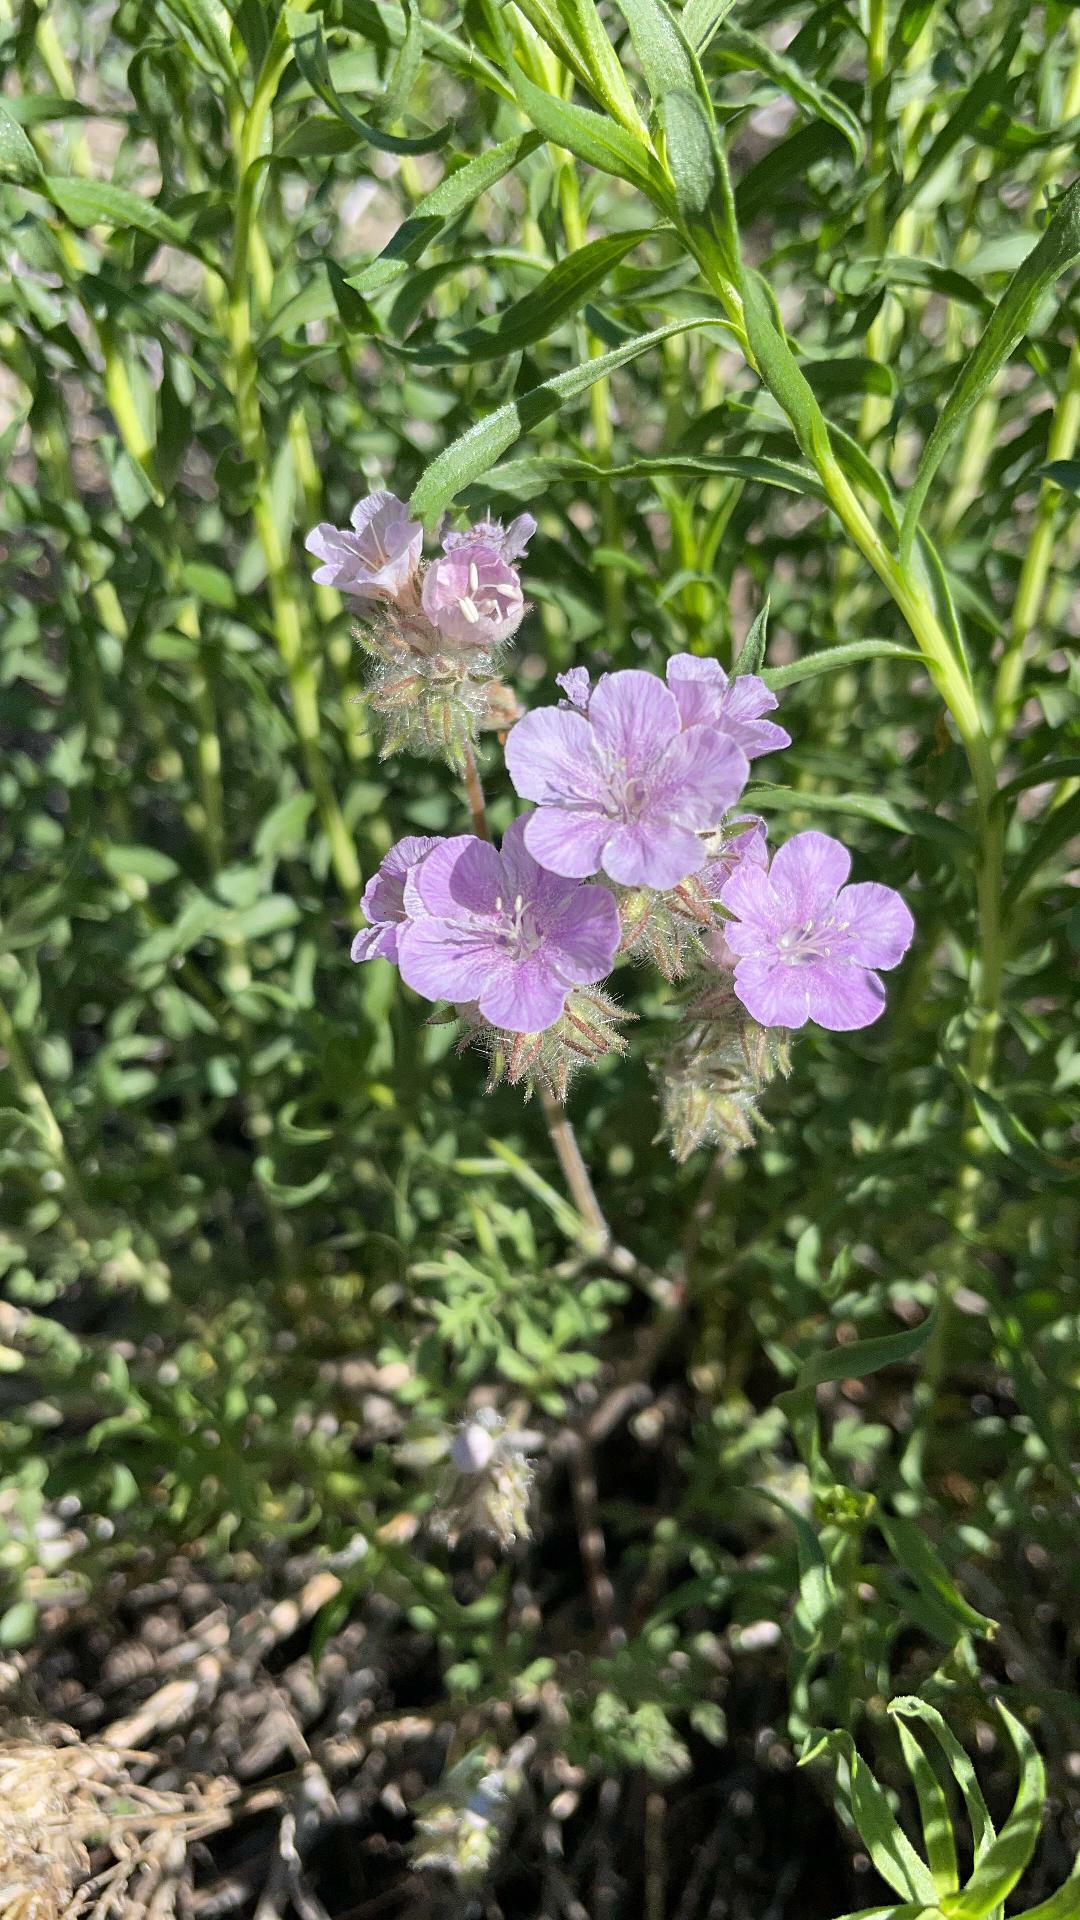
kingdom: Plantae
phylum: Tracheophyta
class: Magnoliopsida
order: Boraginales
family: Hydrophyllaceae
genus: Phacelia
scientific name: Phacelia vallis-mortae
